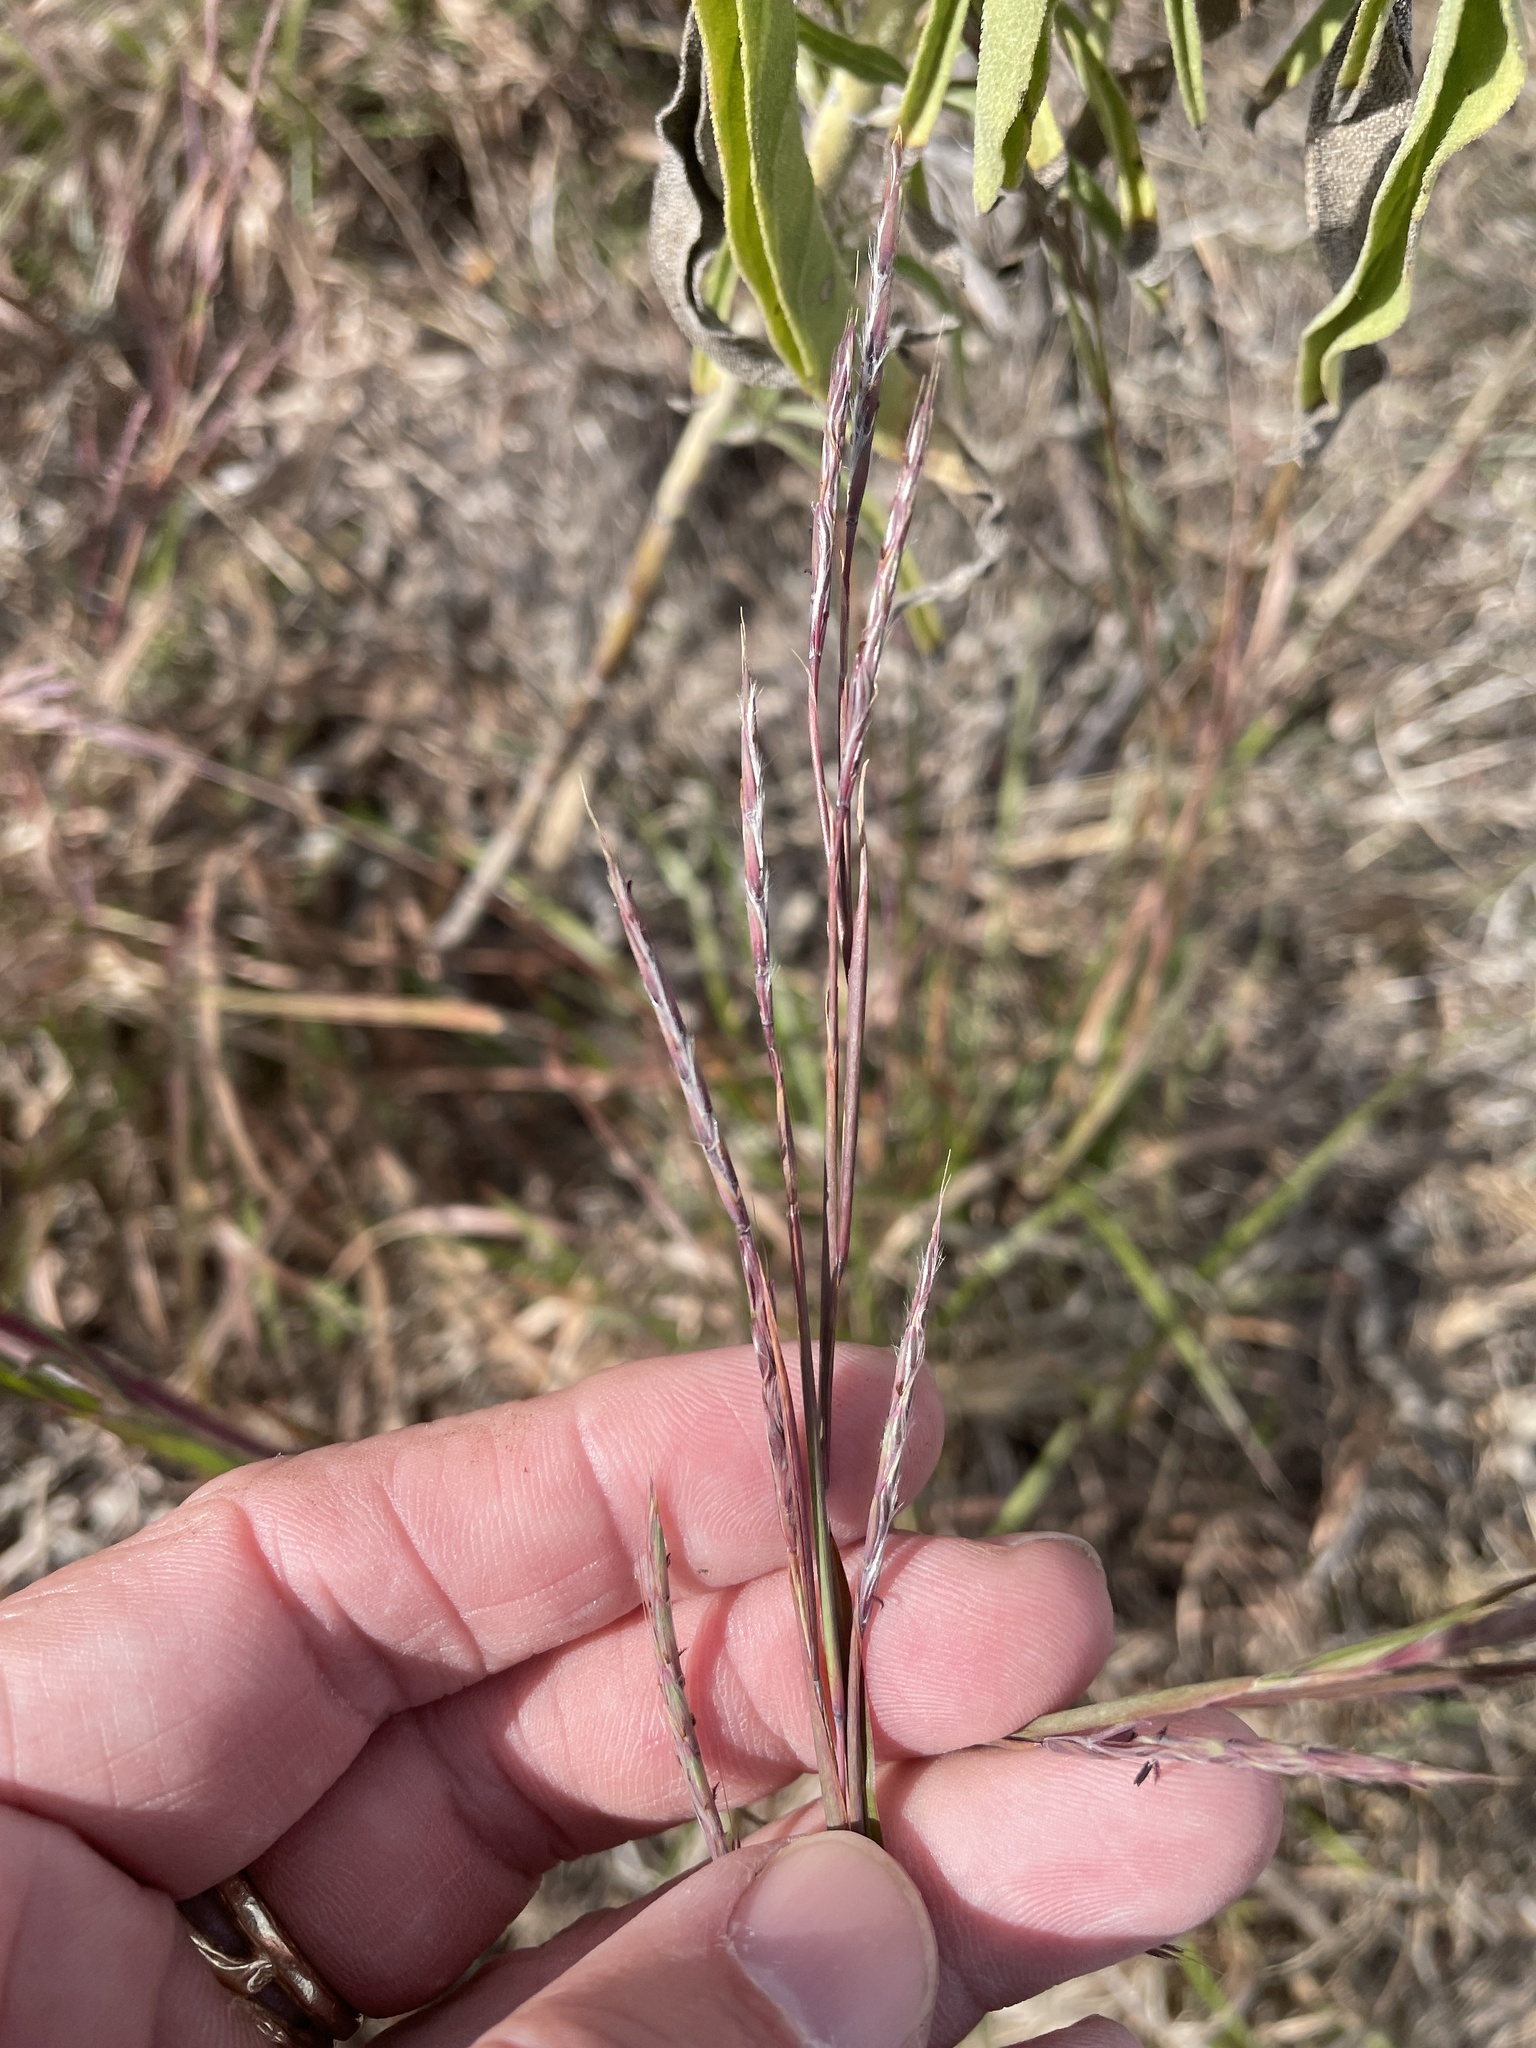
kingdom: Plantae
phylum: Tracheophyta
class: Liliopsida
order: Poales
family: Poaceae
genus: Schizachyrium
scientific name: Schizachyrium scoparium
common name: Little bluestem
